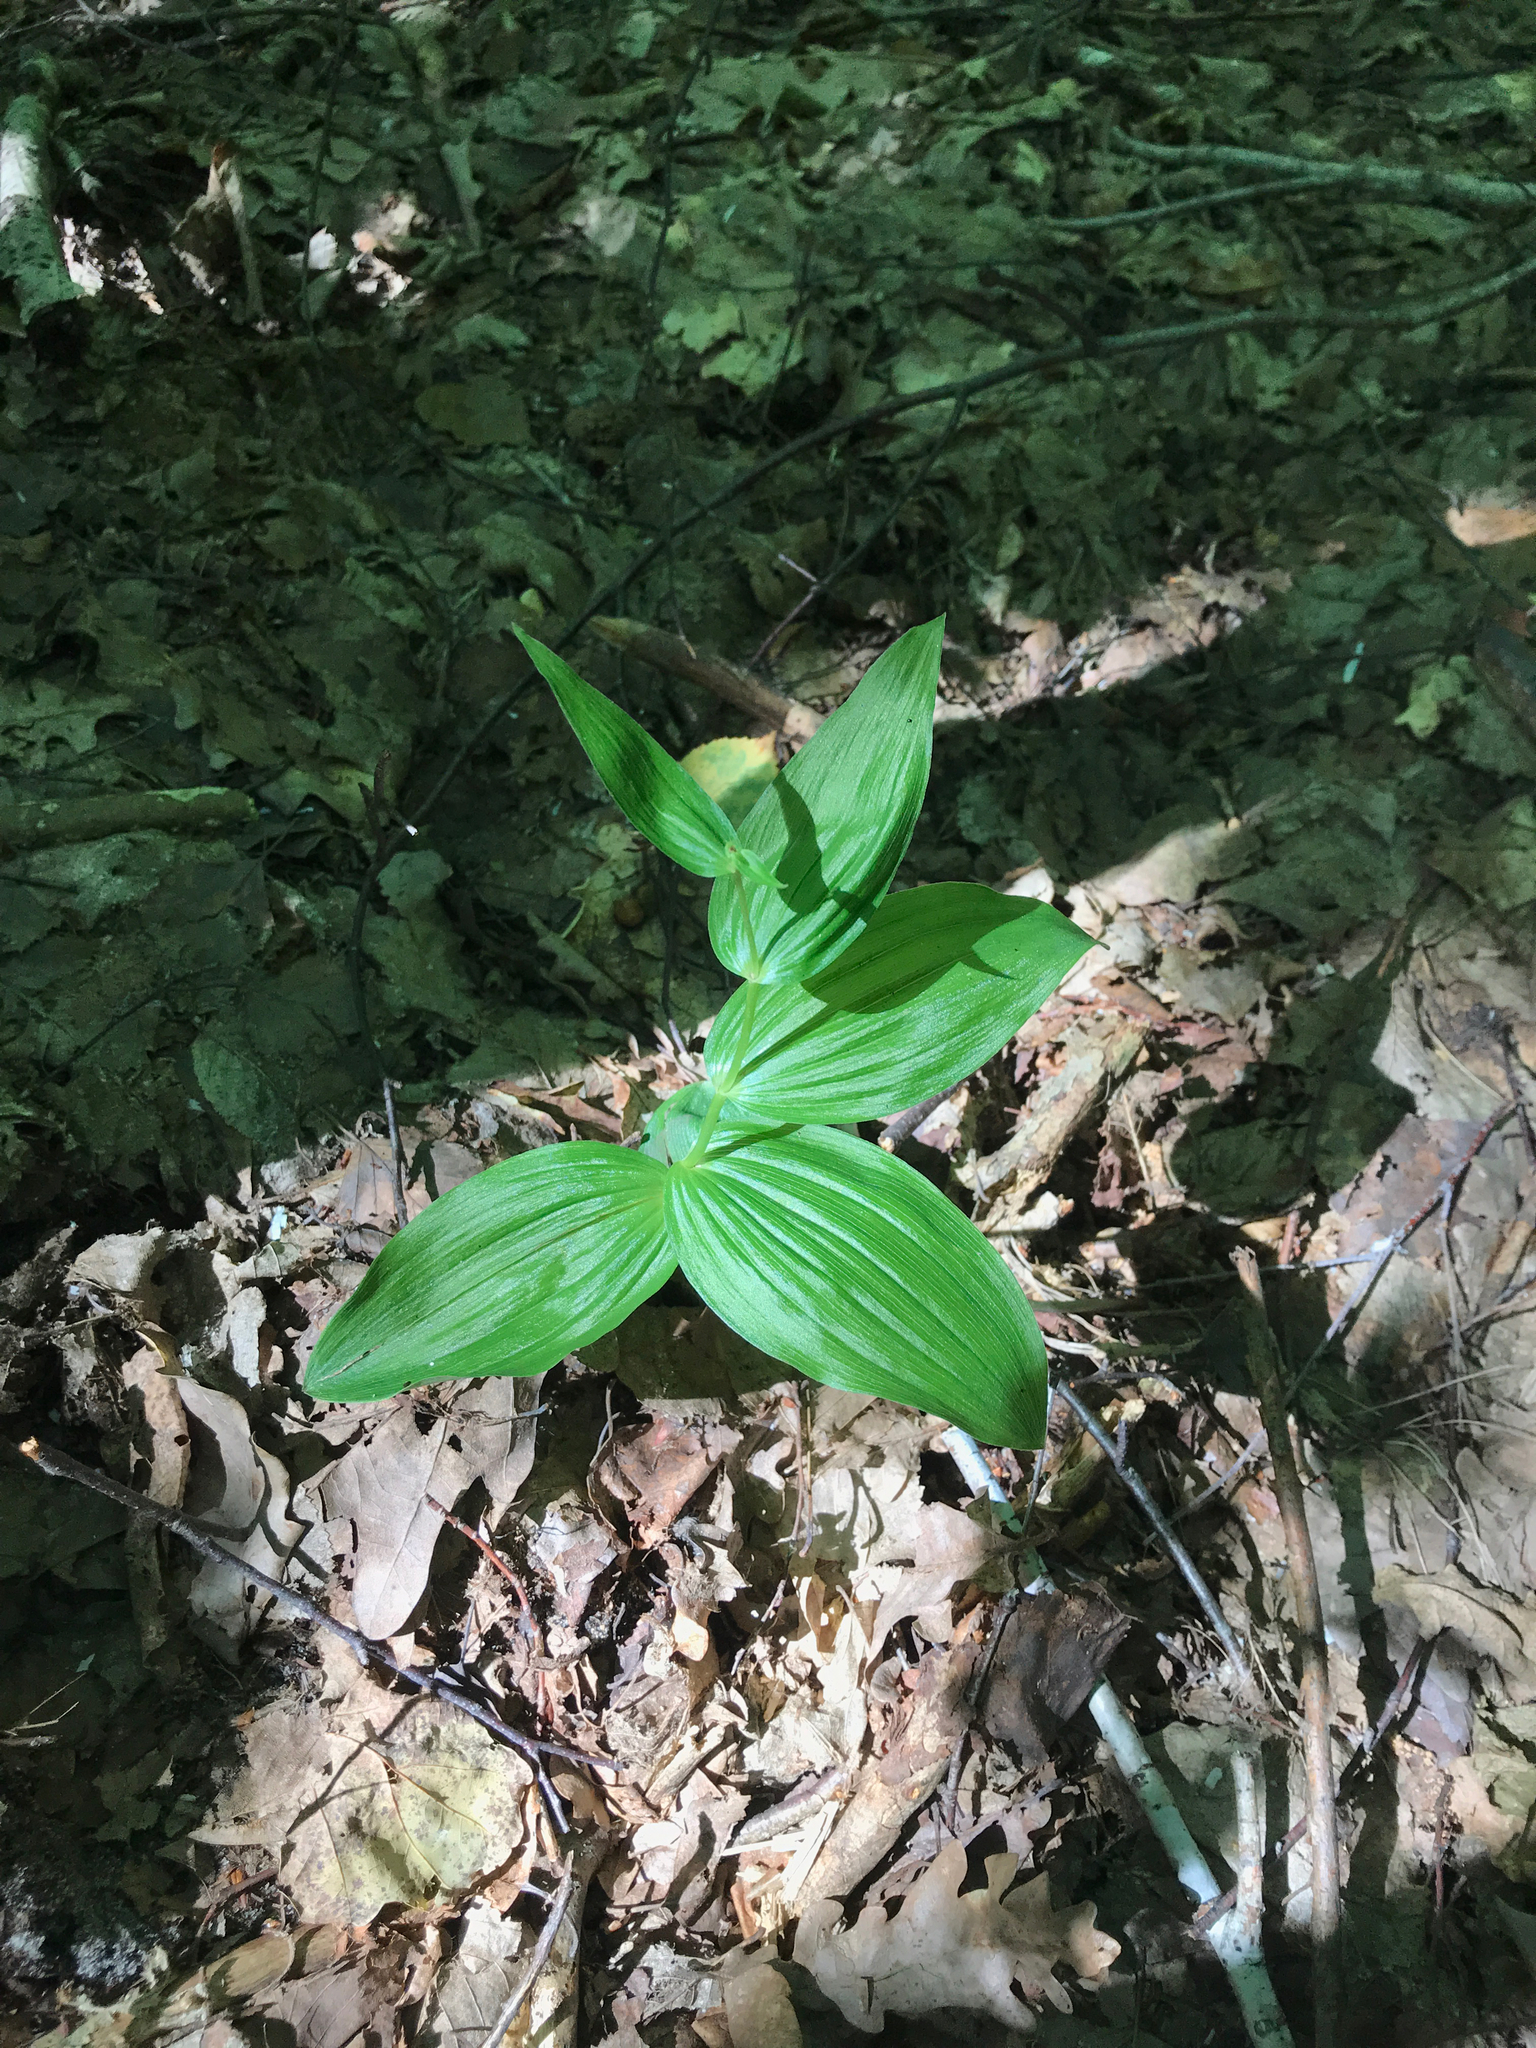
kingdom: Plantae
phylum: Tracheophyta
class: Liliopsida
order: Asparagales
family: Orchidaceae
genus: Epipactis
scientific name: Epipactis helleborine
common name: Broad-leaved helleborine
